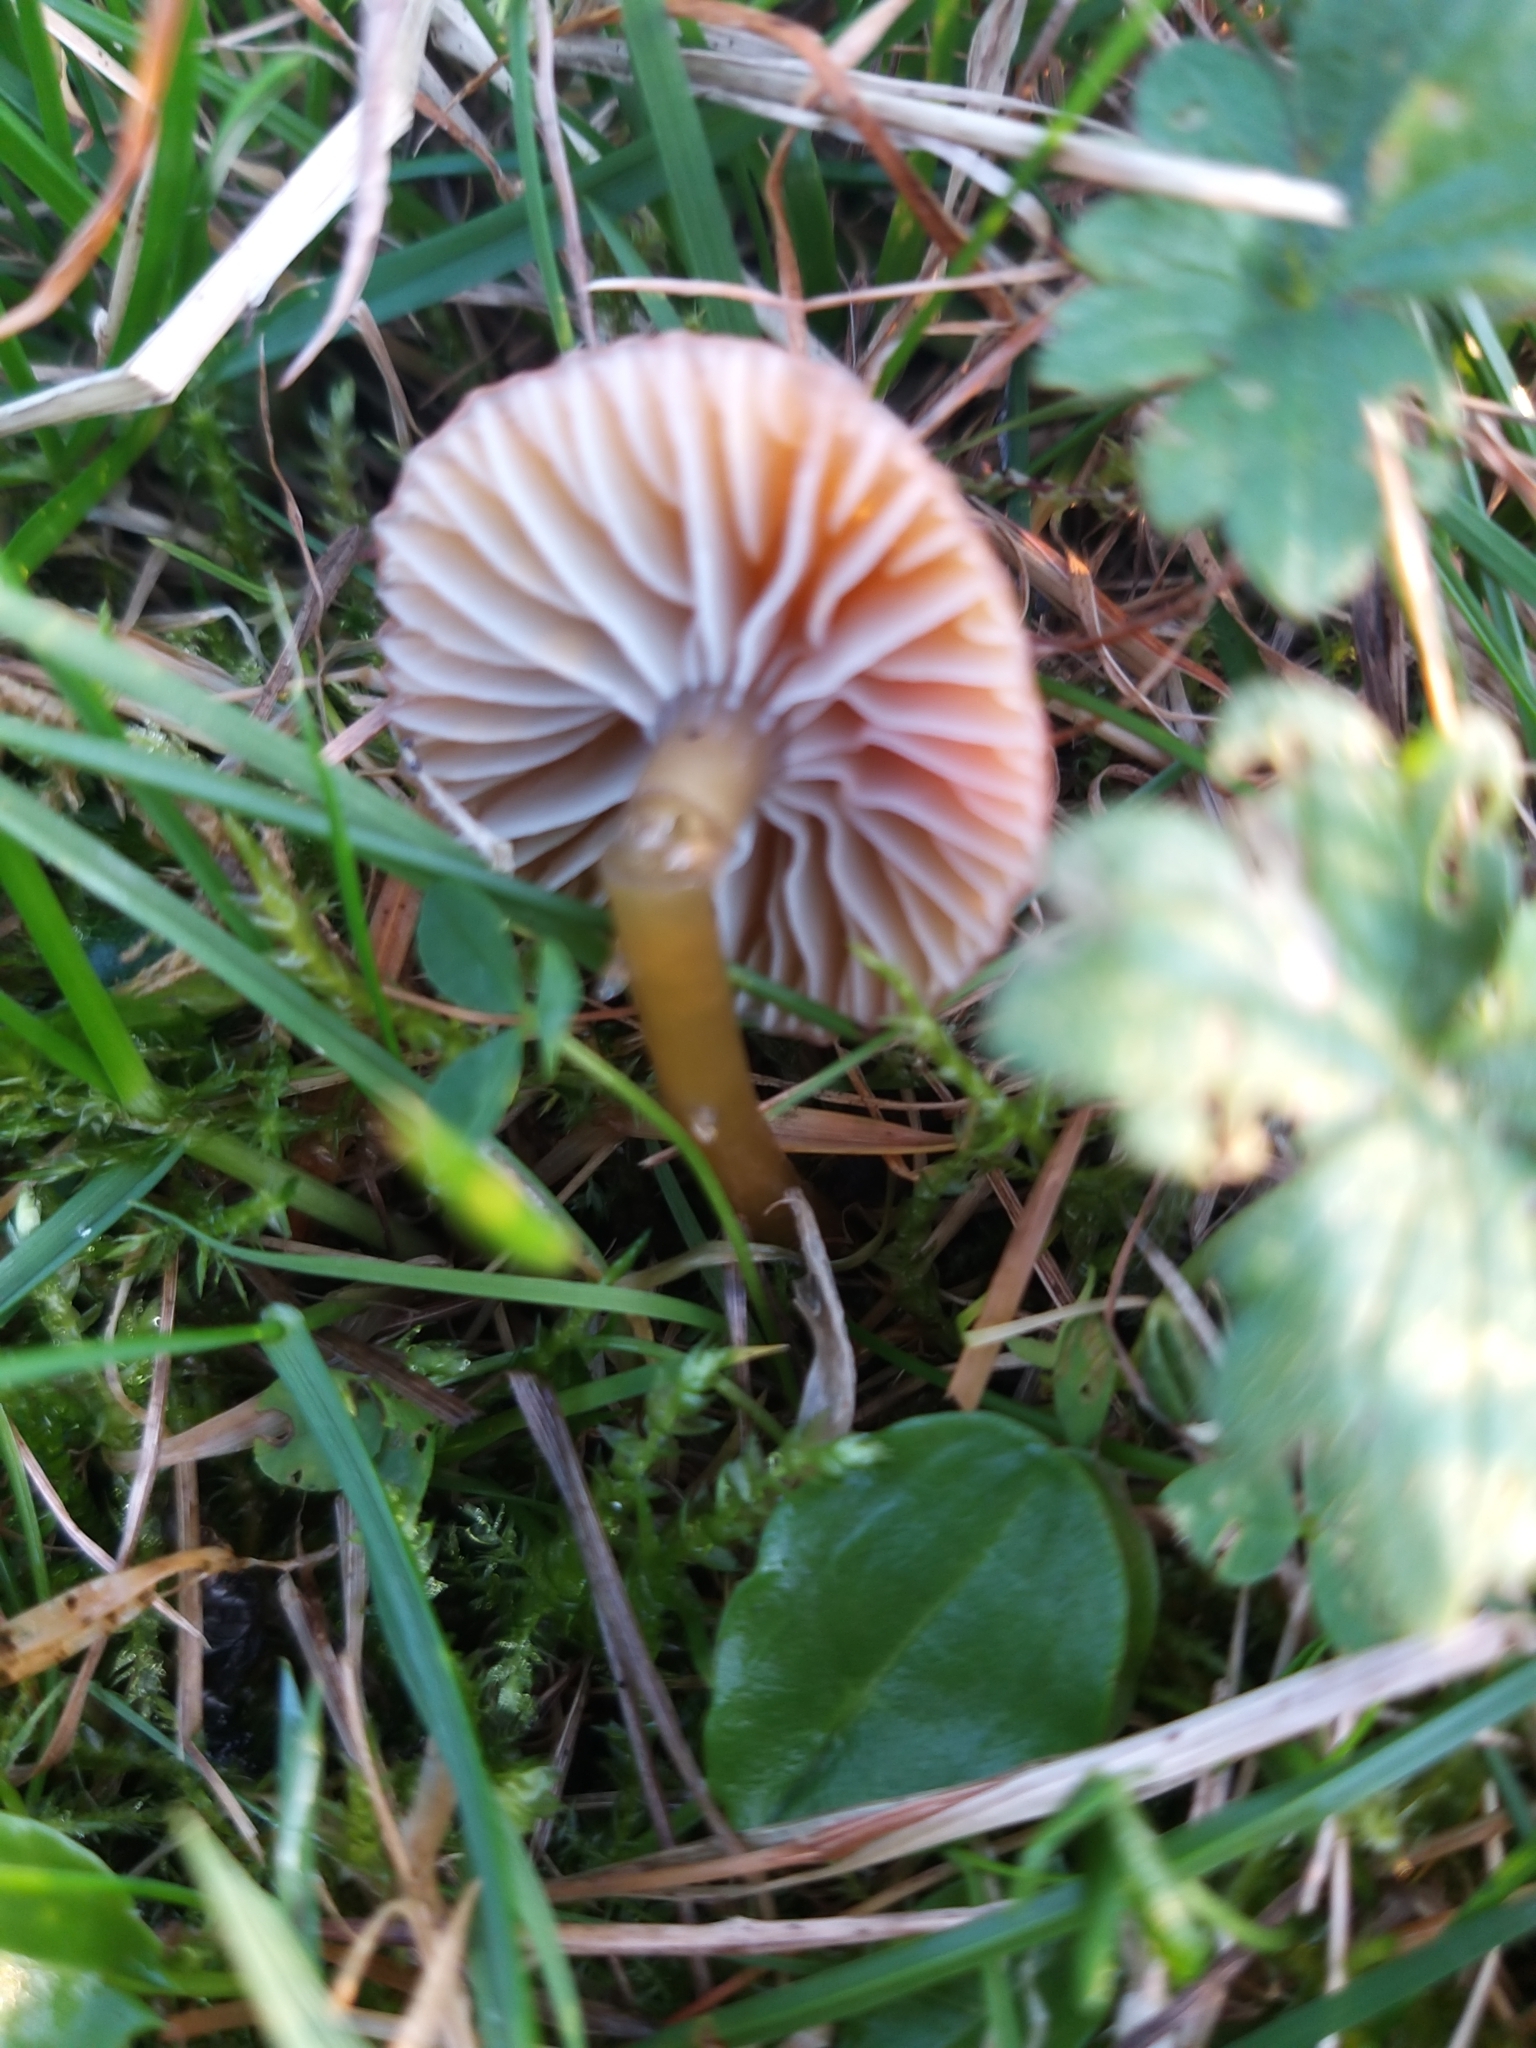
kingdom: Fungi
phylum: Basidiomycota
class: Agaricomycetes
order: Agaricales
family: Hygrophoraceae
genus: Gliophorus
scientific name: Gliophorus laetus
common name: Heath waxcap
